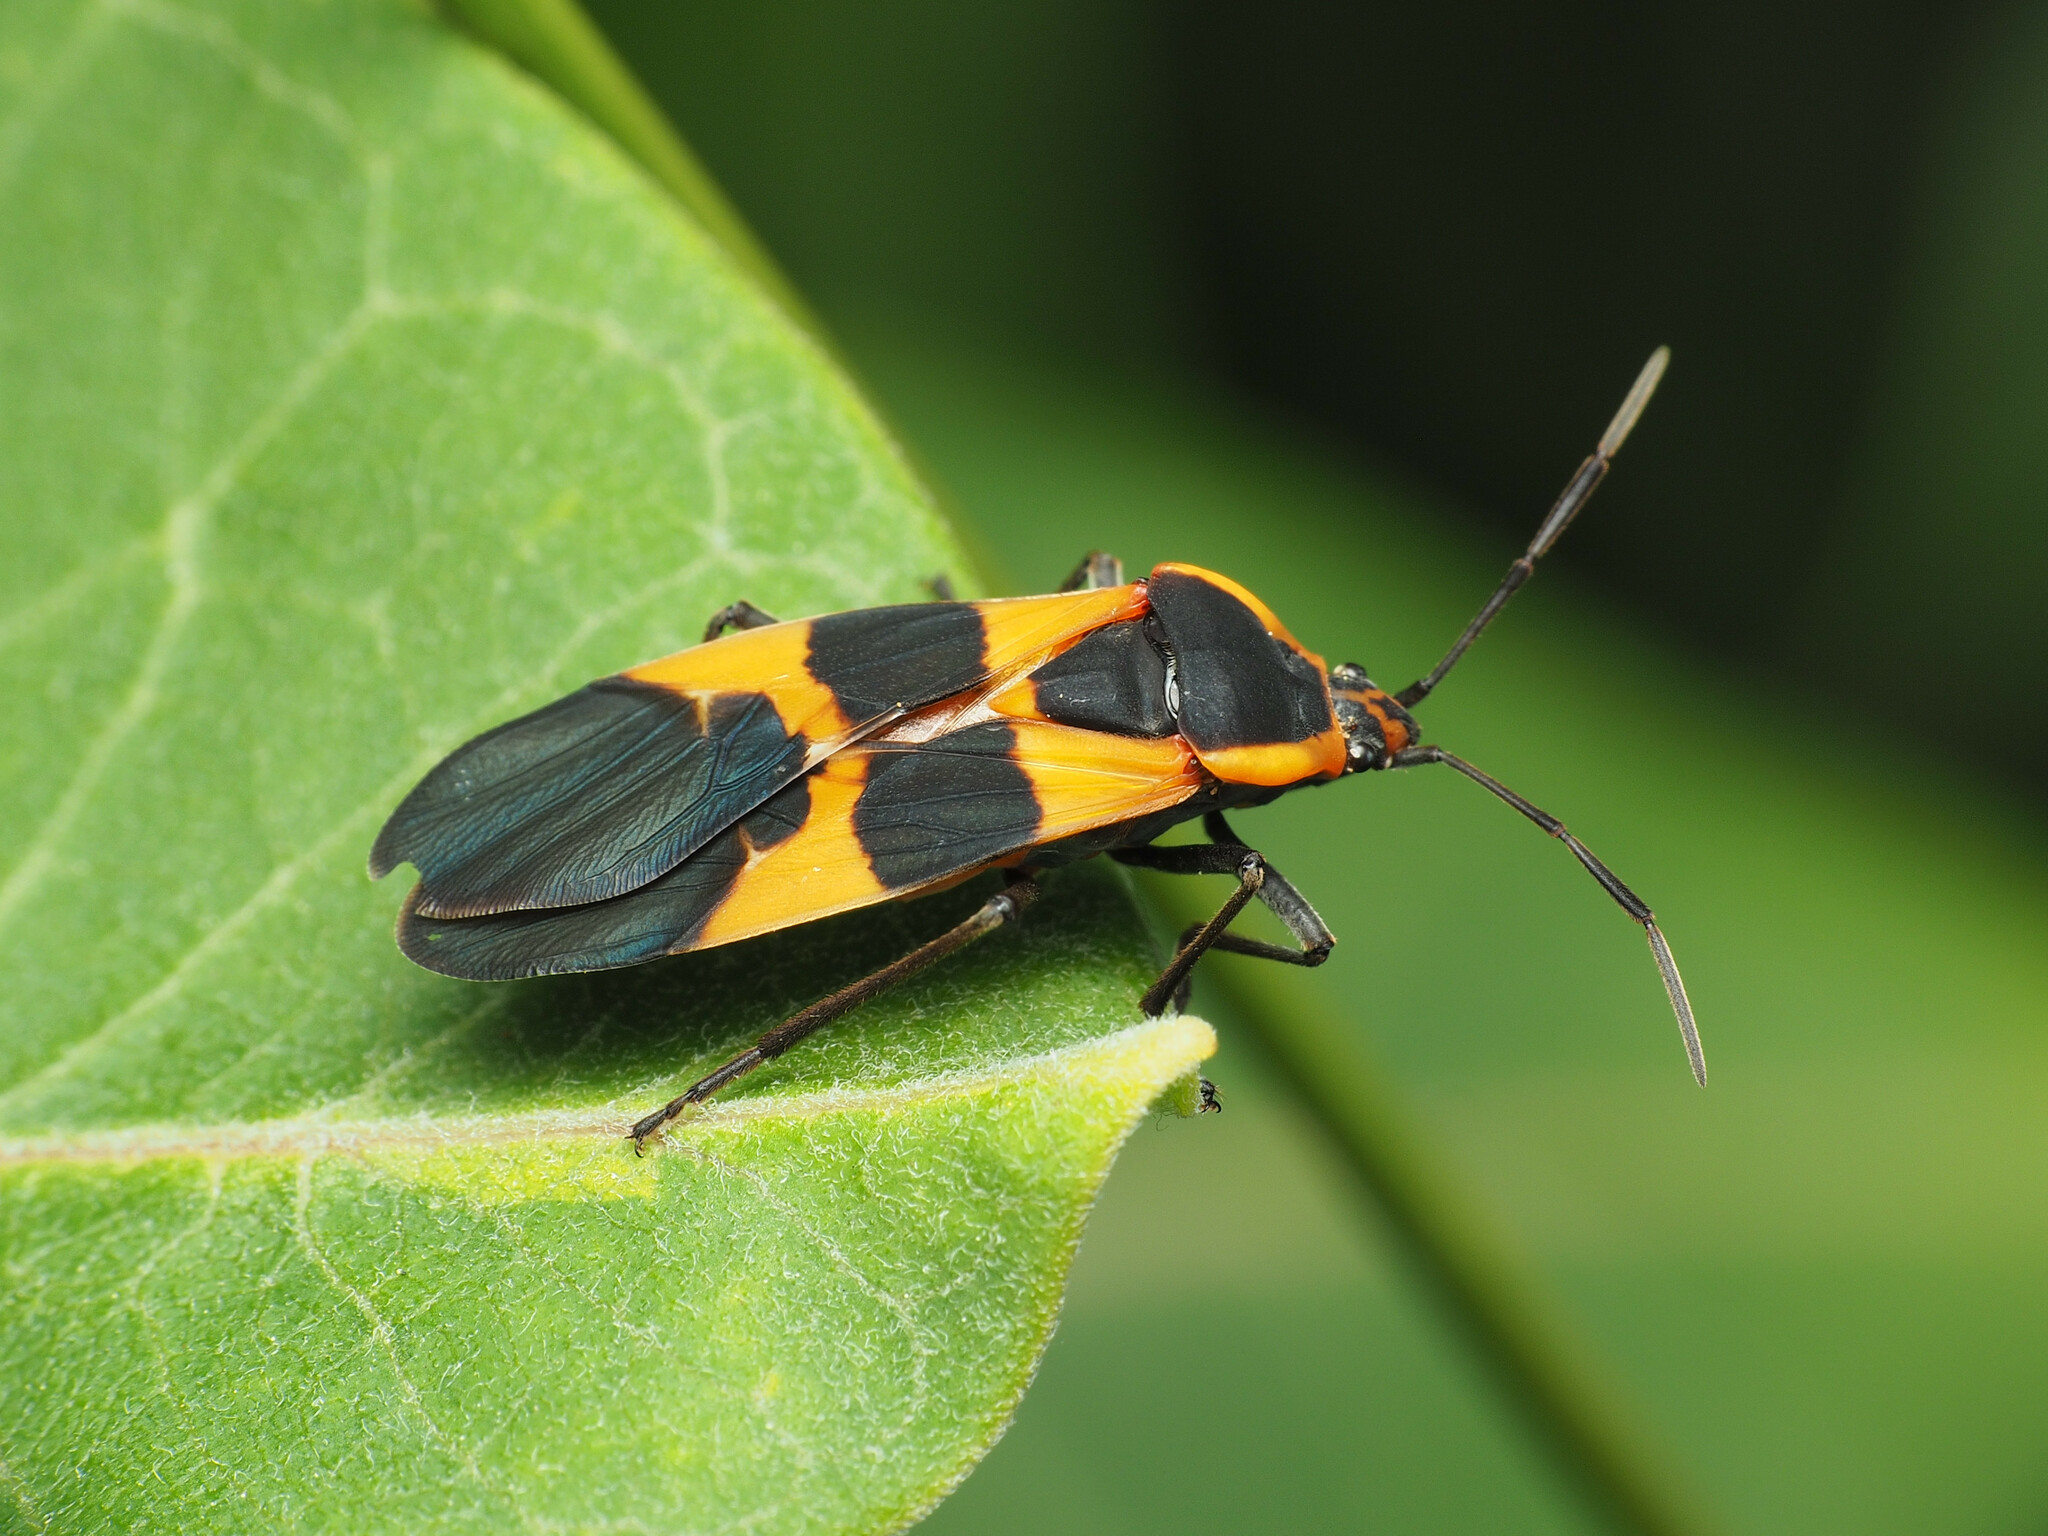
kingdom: Animalia
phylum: Arthropoda
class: Insecta
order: Hemiptera
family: Lygaeidae
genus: Oncopeltus
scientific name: Oncopeltus fasciatus
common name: Large milkweed bug
